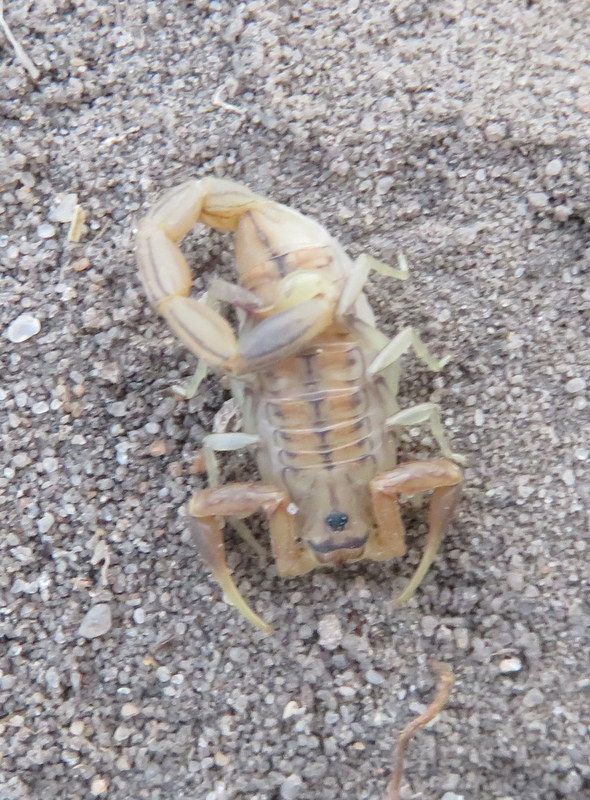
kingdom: Animalia
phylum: Arthropoda
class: Arachnida
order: Scorpiones
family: Buthidae
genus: Uroplectes
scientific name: Uroplectes planimanus
